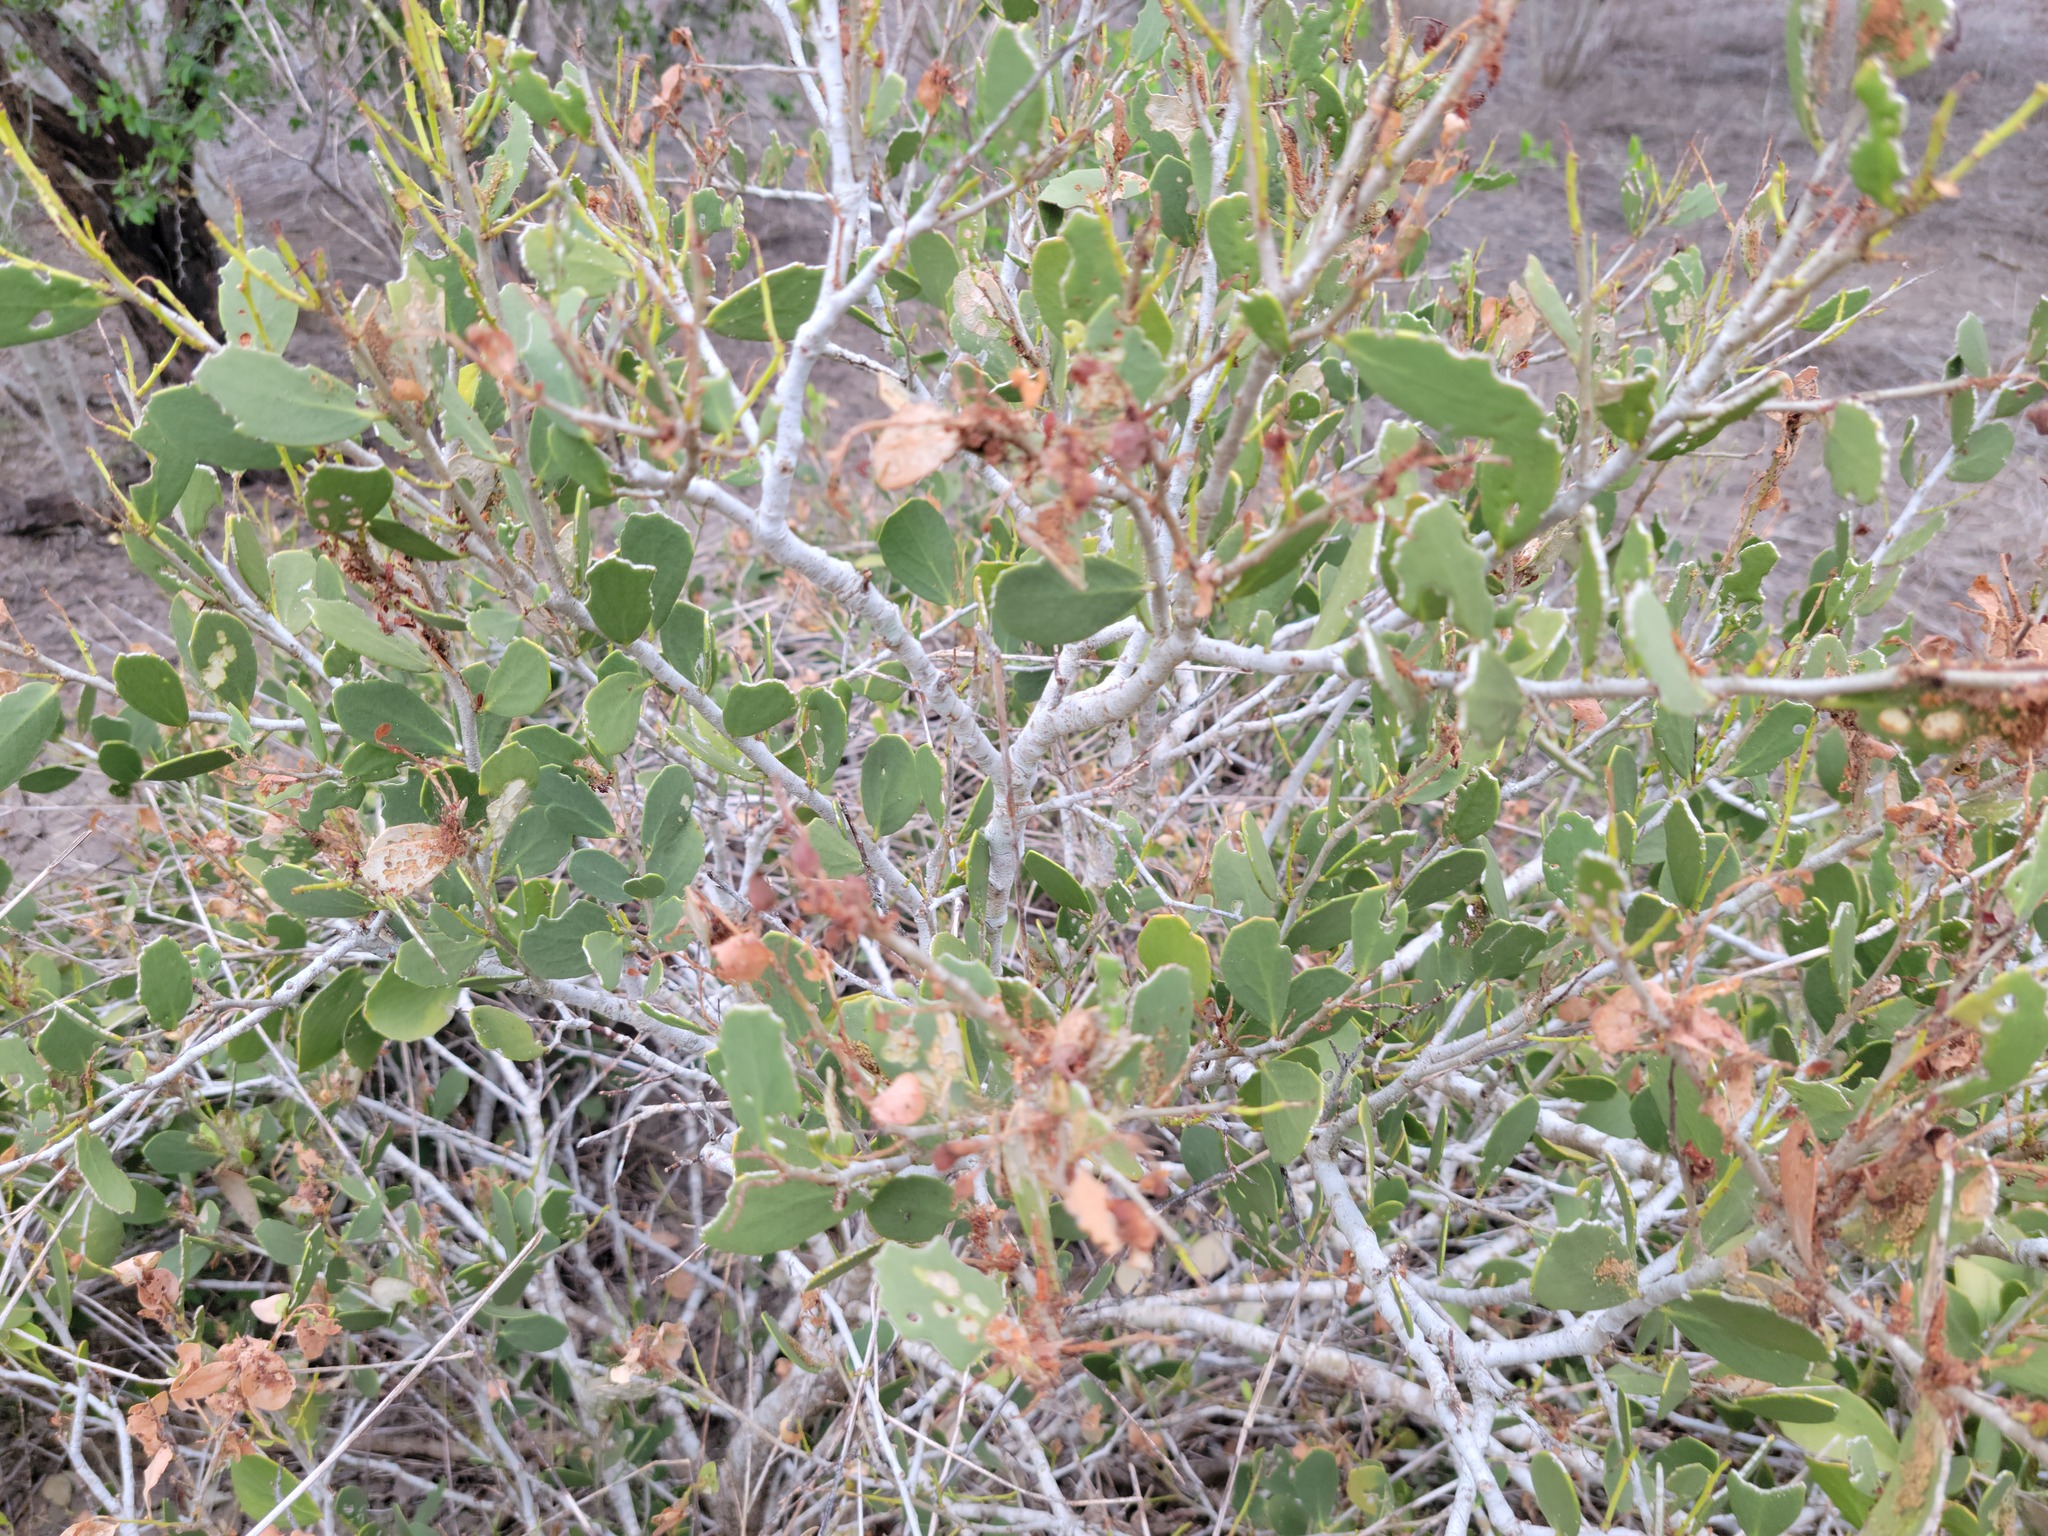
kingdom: Plantae
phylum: Tracheophyta
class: Magnoliopsida
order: Celastrales
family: Celastraceae
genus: Tricerma
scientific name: Tricerma phyllanthoides
